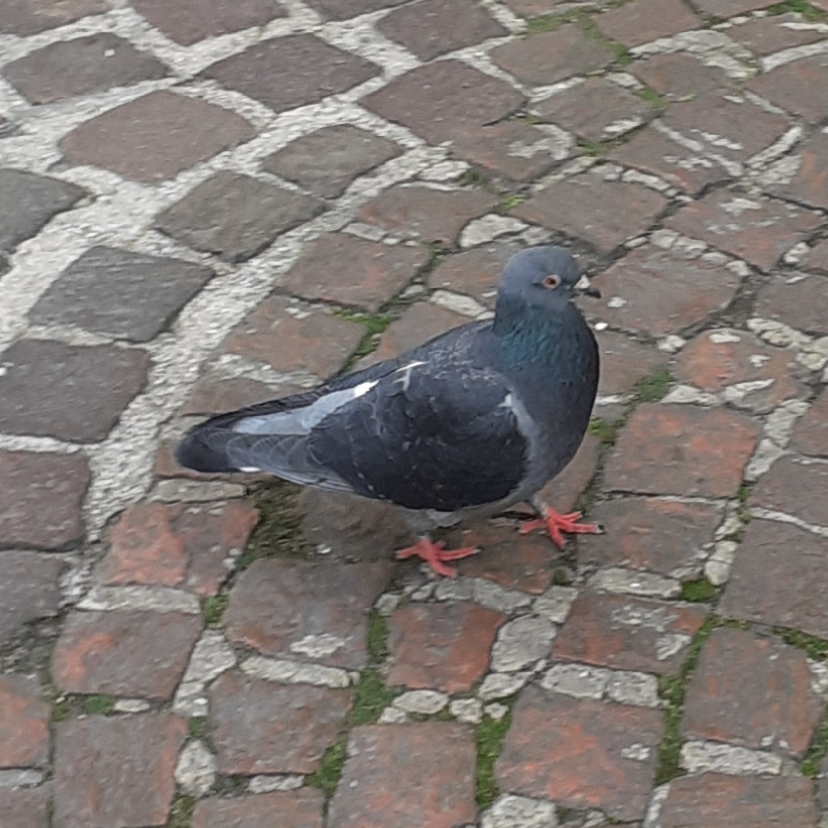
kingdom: Animalia
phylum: Chordata
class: Aves
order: Columbiformes
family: Columbidae
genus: Columba
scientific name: Columba livia
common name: Rock pigeon
